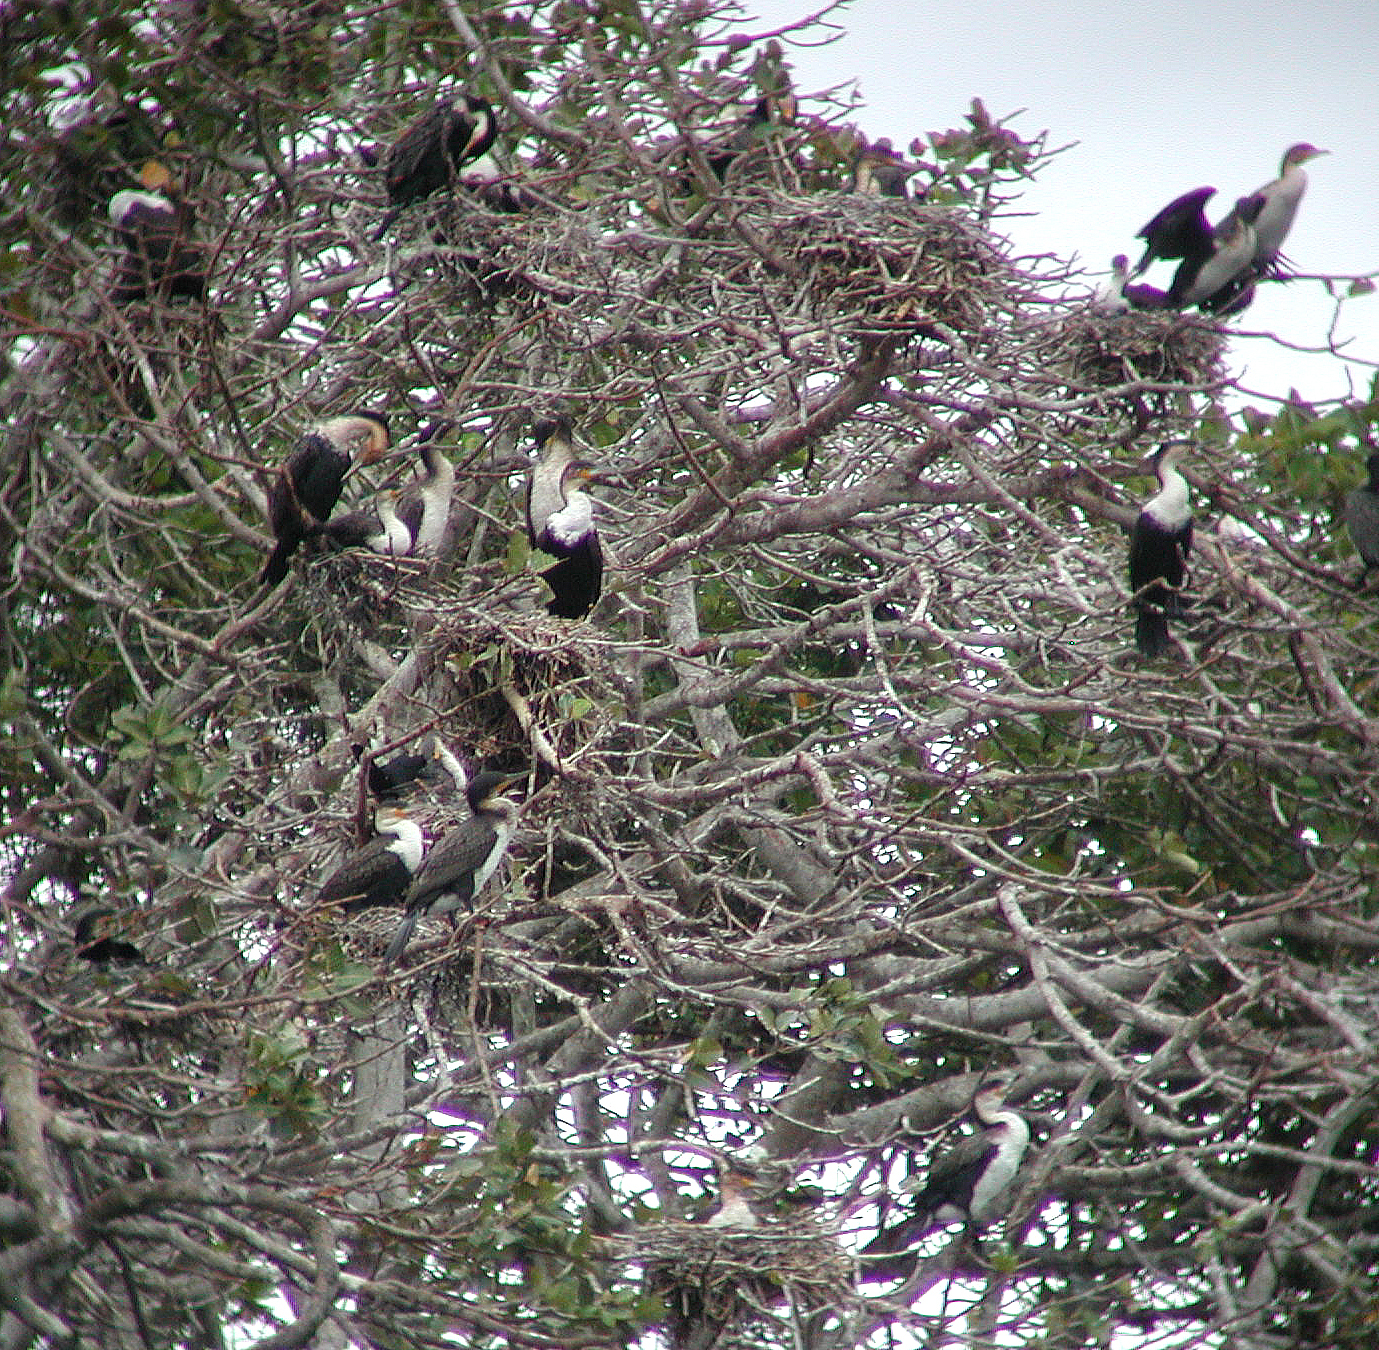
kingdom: Animalia
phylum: Chordata
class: Aves
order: Suliformes
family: Phalacrocoracidae
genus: Phalacrocorax
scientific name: Phalacrocorax carbo
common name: Great cormorant
